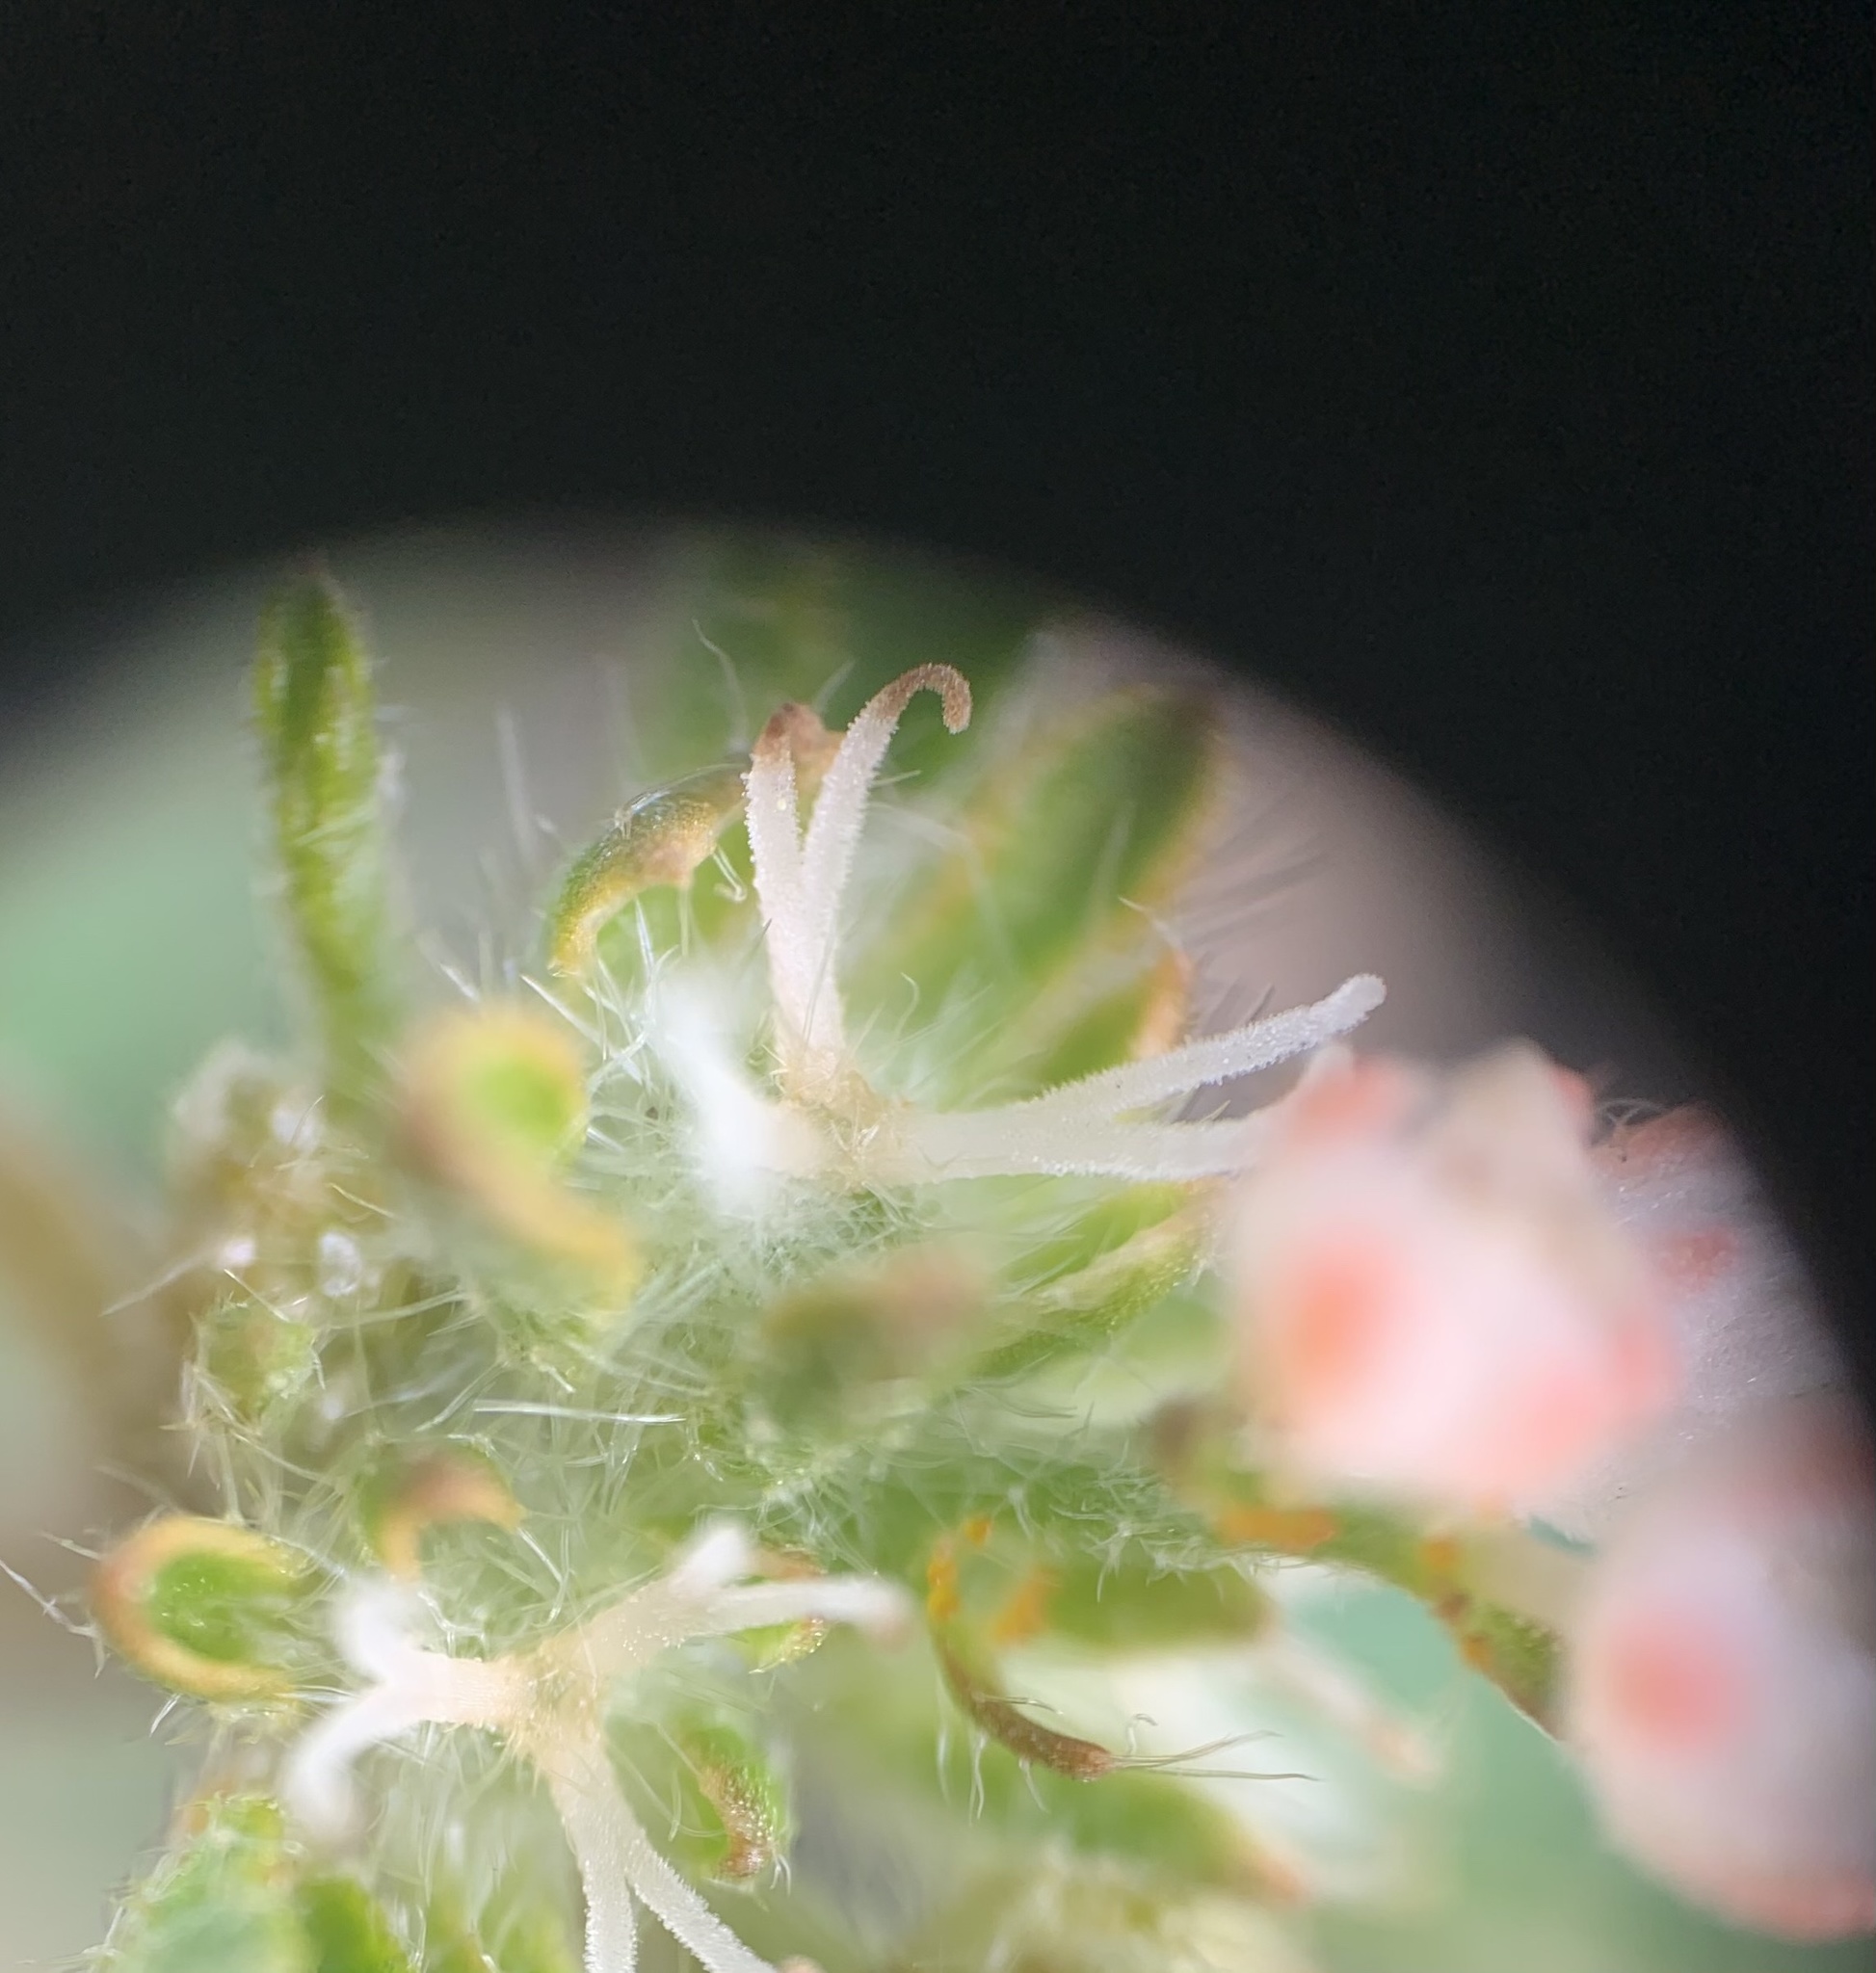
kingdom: Plantae
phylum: Tracheophyta
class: Magnoliopsida
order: Malpighiales
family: Euphorbiaceae
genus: Croton
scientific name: Croton glandulosus
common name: Tropic croton
